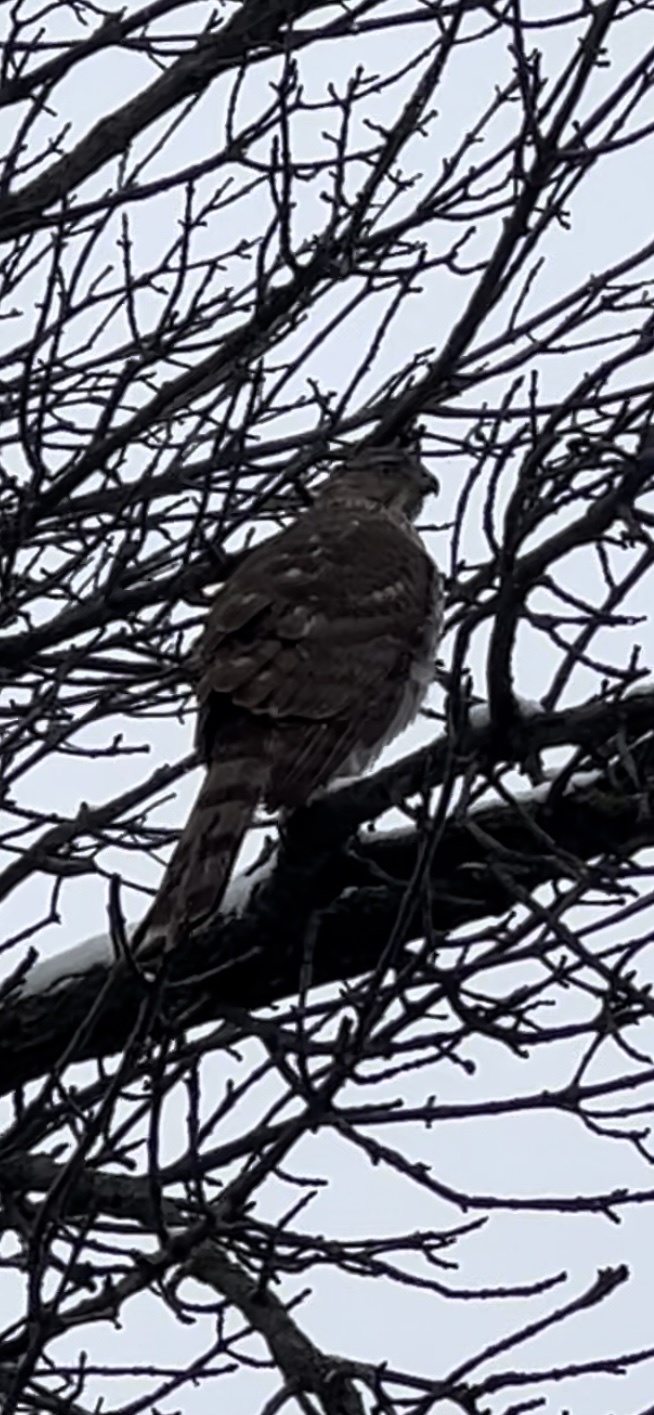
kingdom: Animalia
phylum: Chordata
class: Aves
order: Accipitriformes
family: Accipitridae
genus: Accipiter
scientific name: Accipiter cooperii
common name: Cooper's hawk
